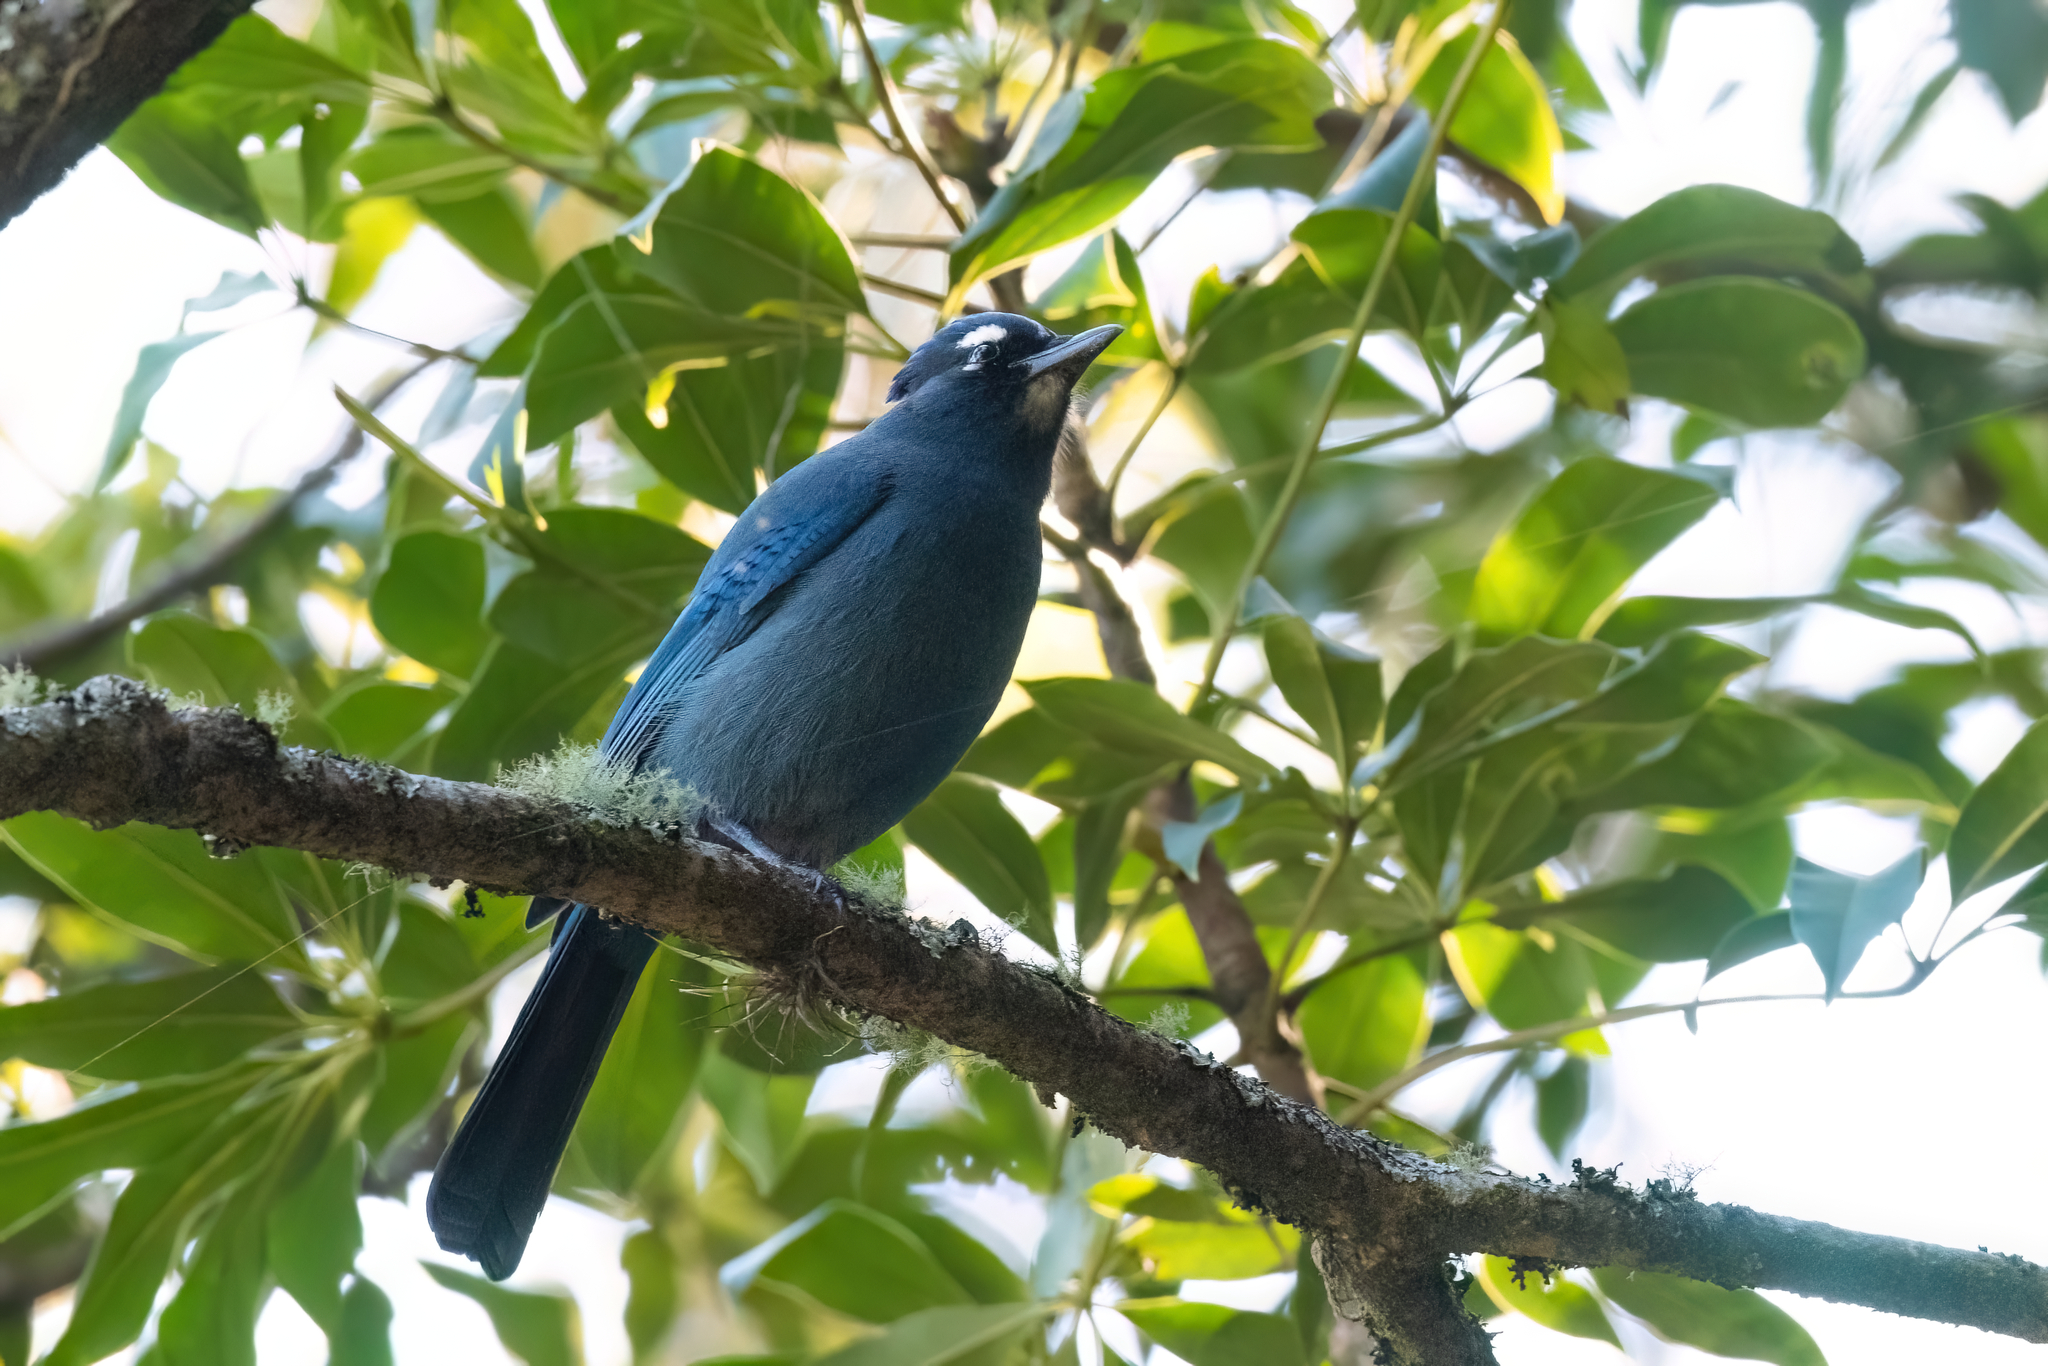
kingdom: Animalia
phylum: Chordata
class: Aves
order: Passeriformes
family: Corvidae
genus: Cyanocitta
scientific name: Cyanocitta stelleri
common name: Steller's jay
